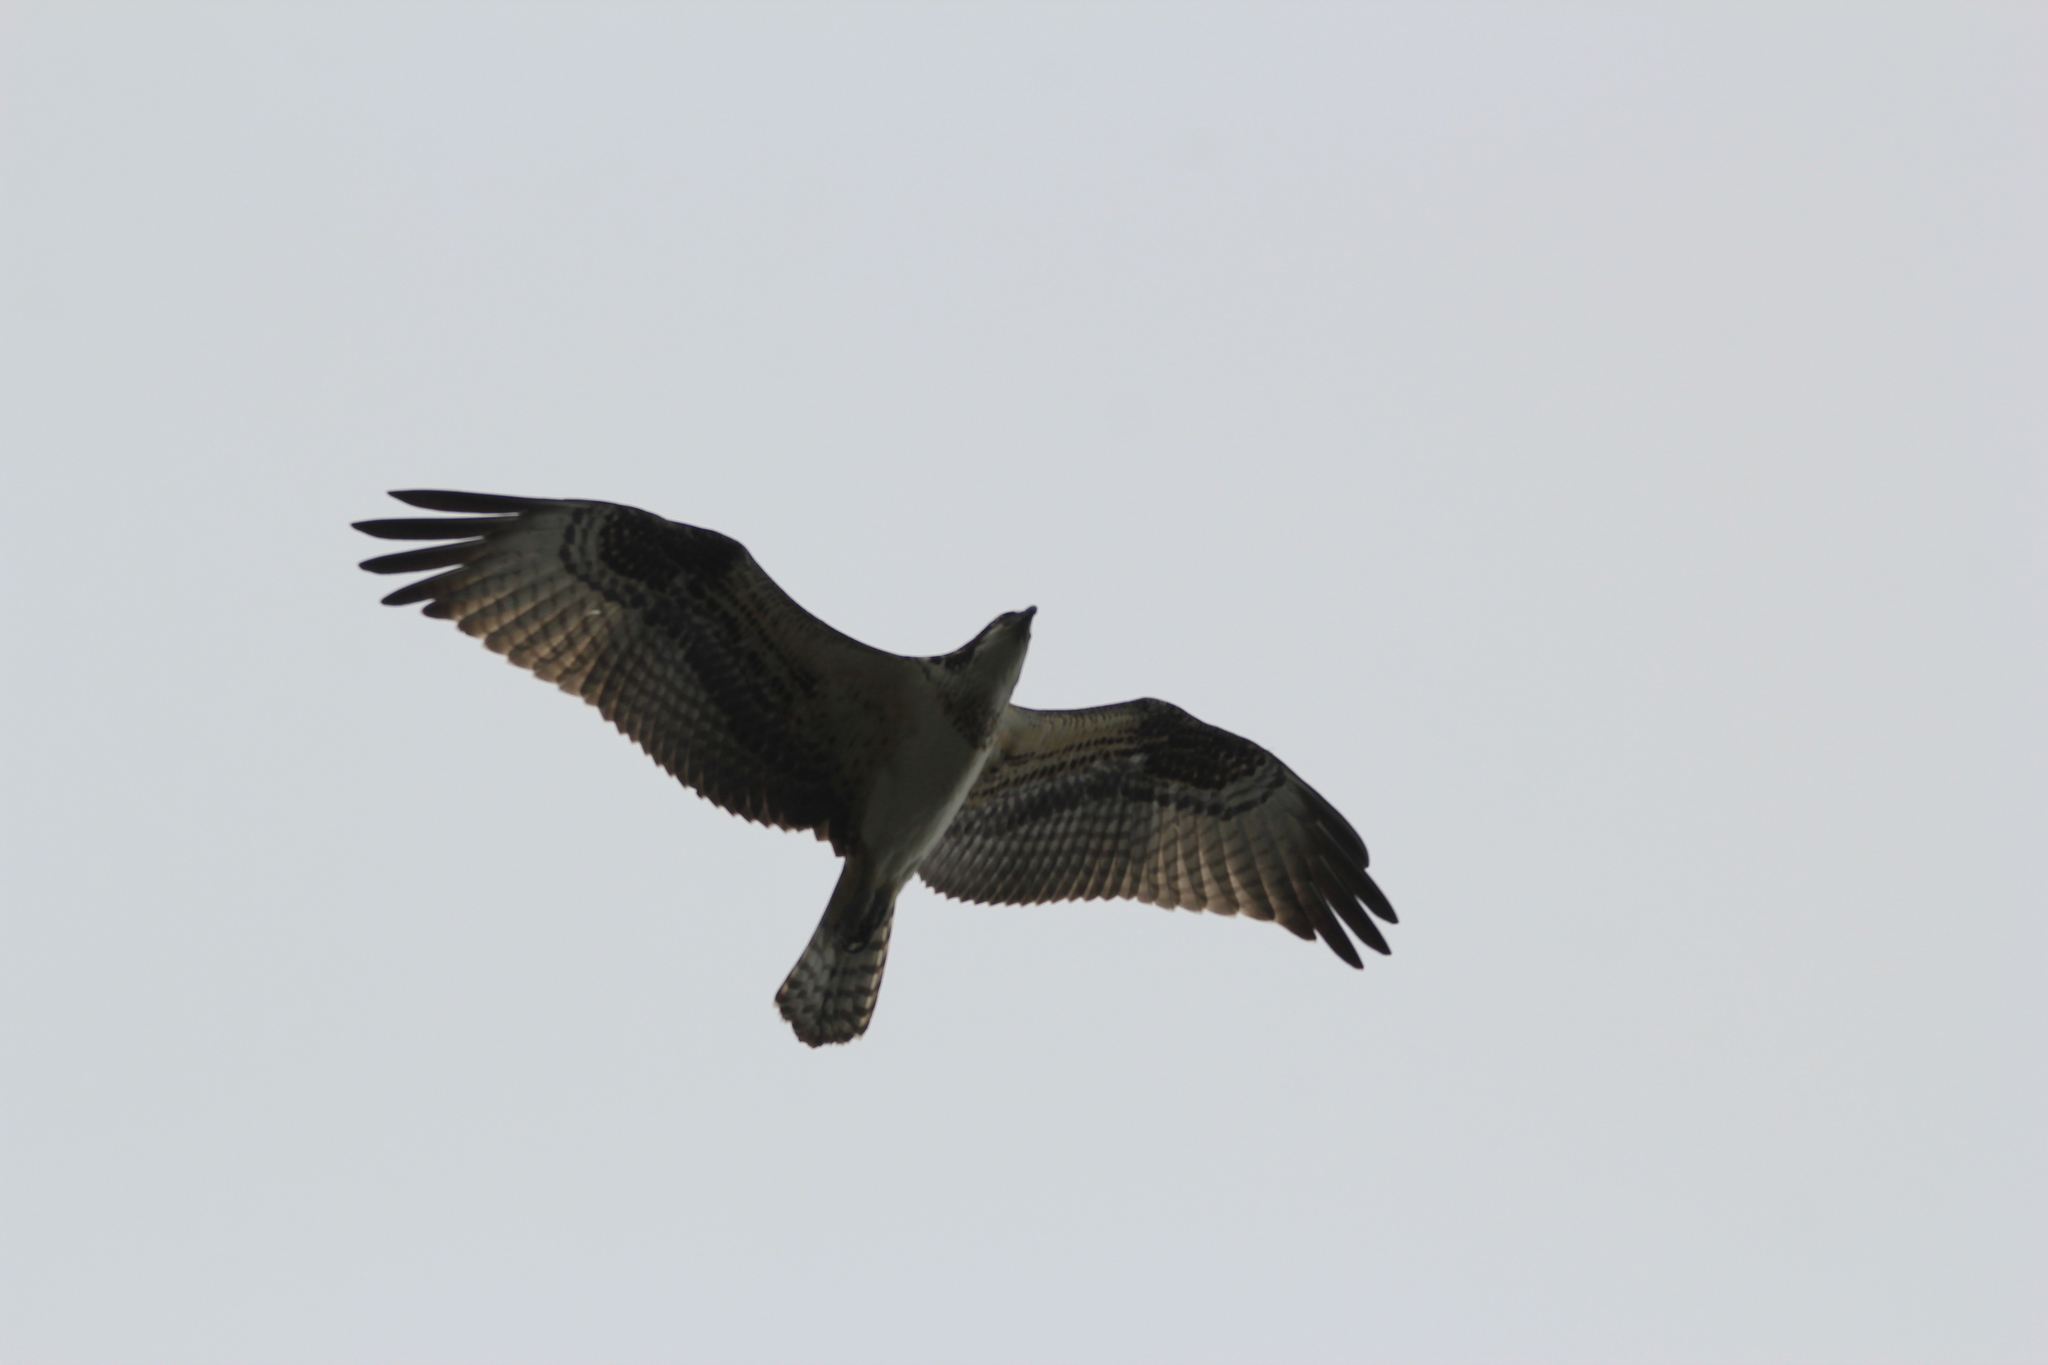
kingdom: Animalia
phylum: Chordata
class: Aves
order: Accipitriformes
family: Pandionidae
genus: Pandion
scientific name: Pandion haliaetus
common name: Osprey
